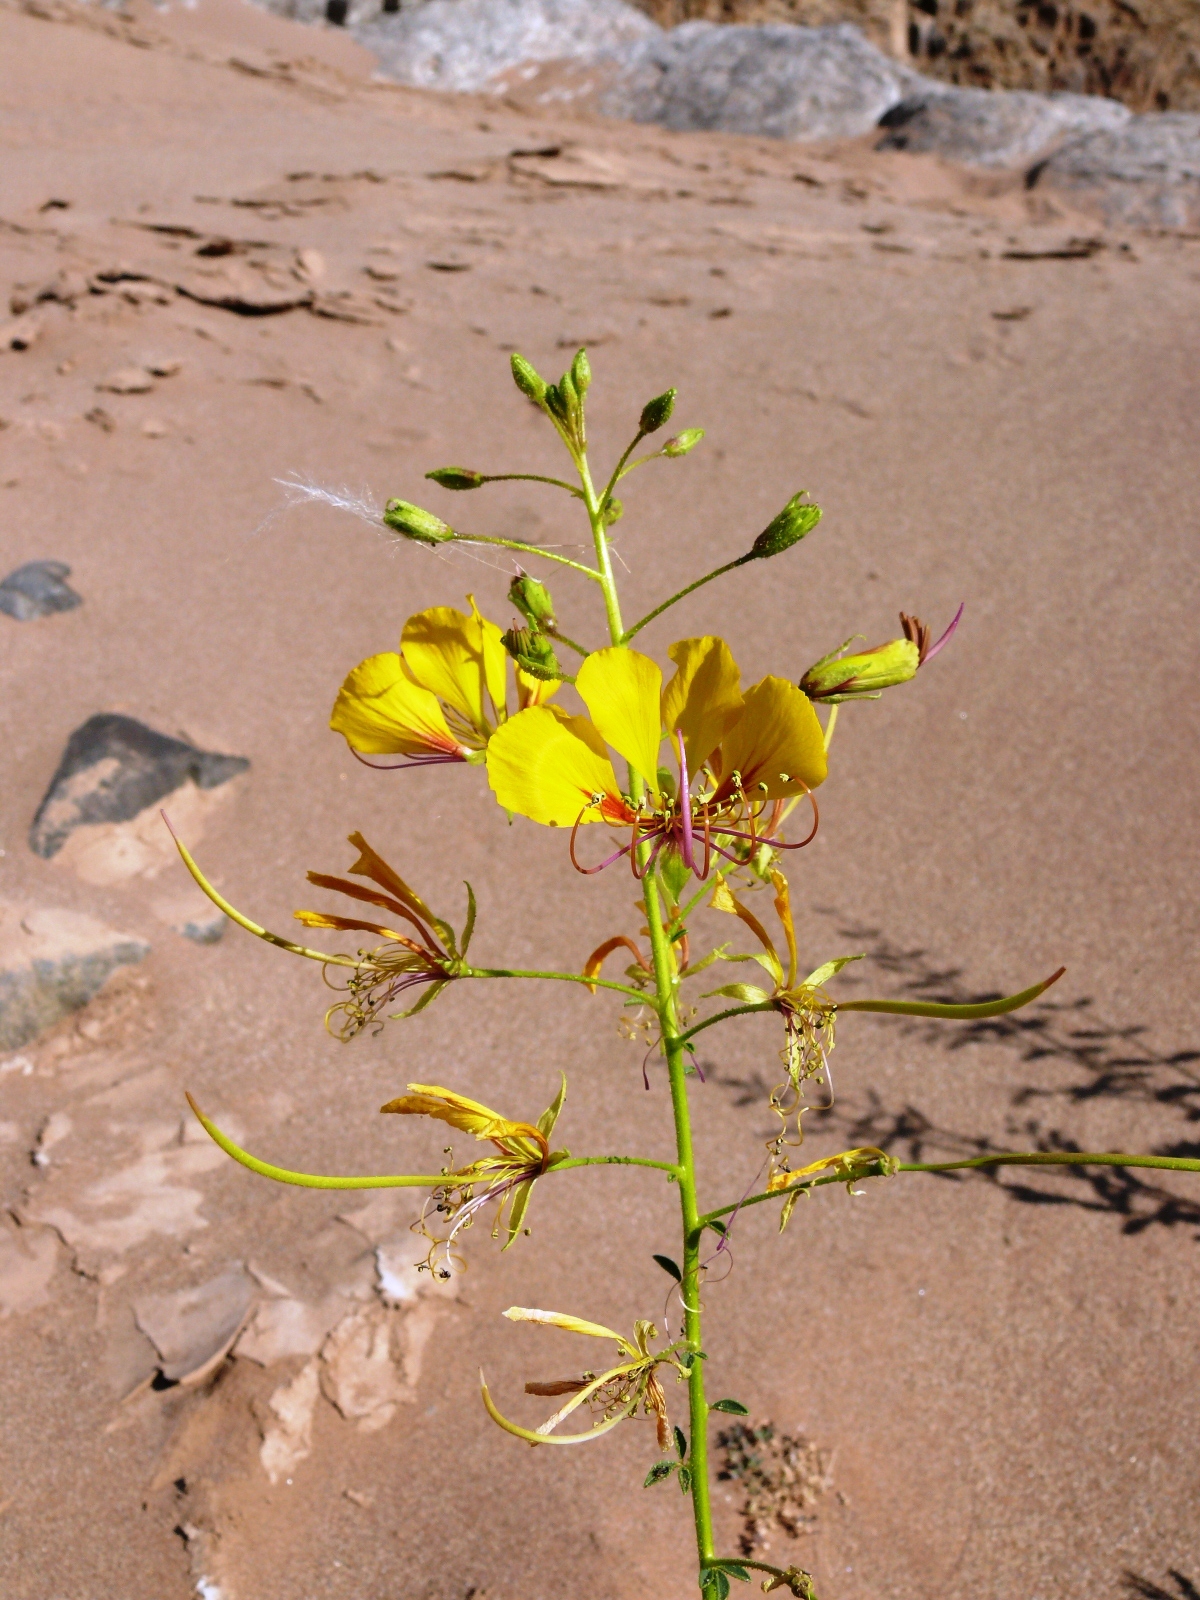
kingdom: Plantae
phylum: Tracheophyta
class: Magnoliopsida
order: Brassicales
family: Cleomaceae
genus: Kersia
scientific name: Kersia foliosa
